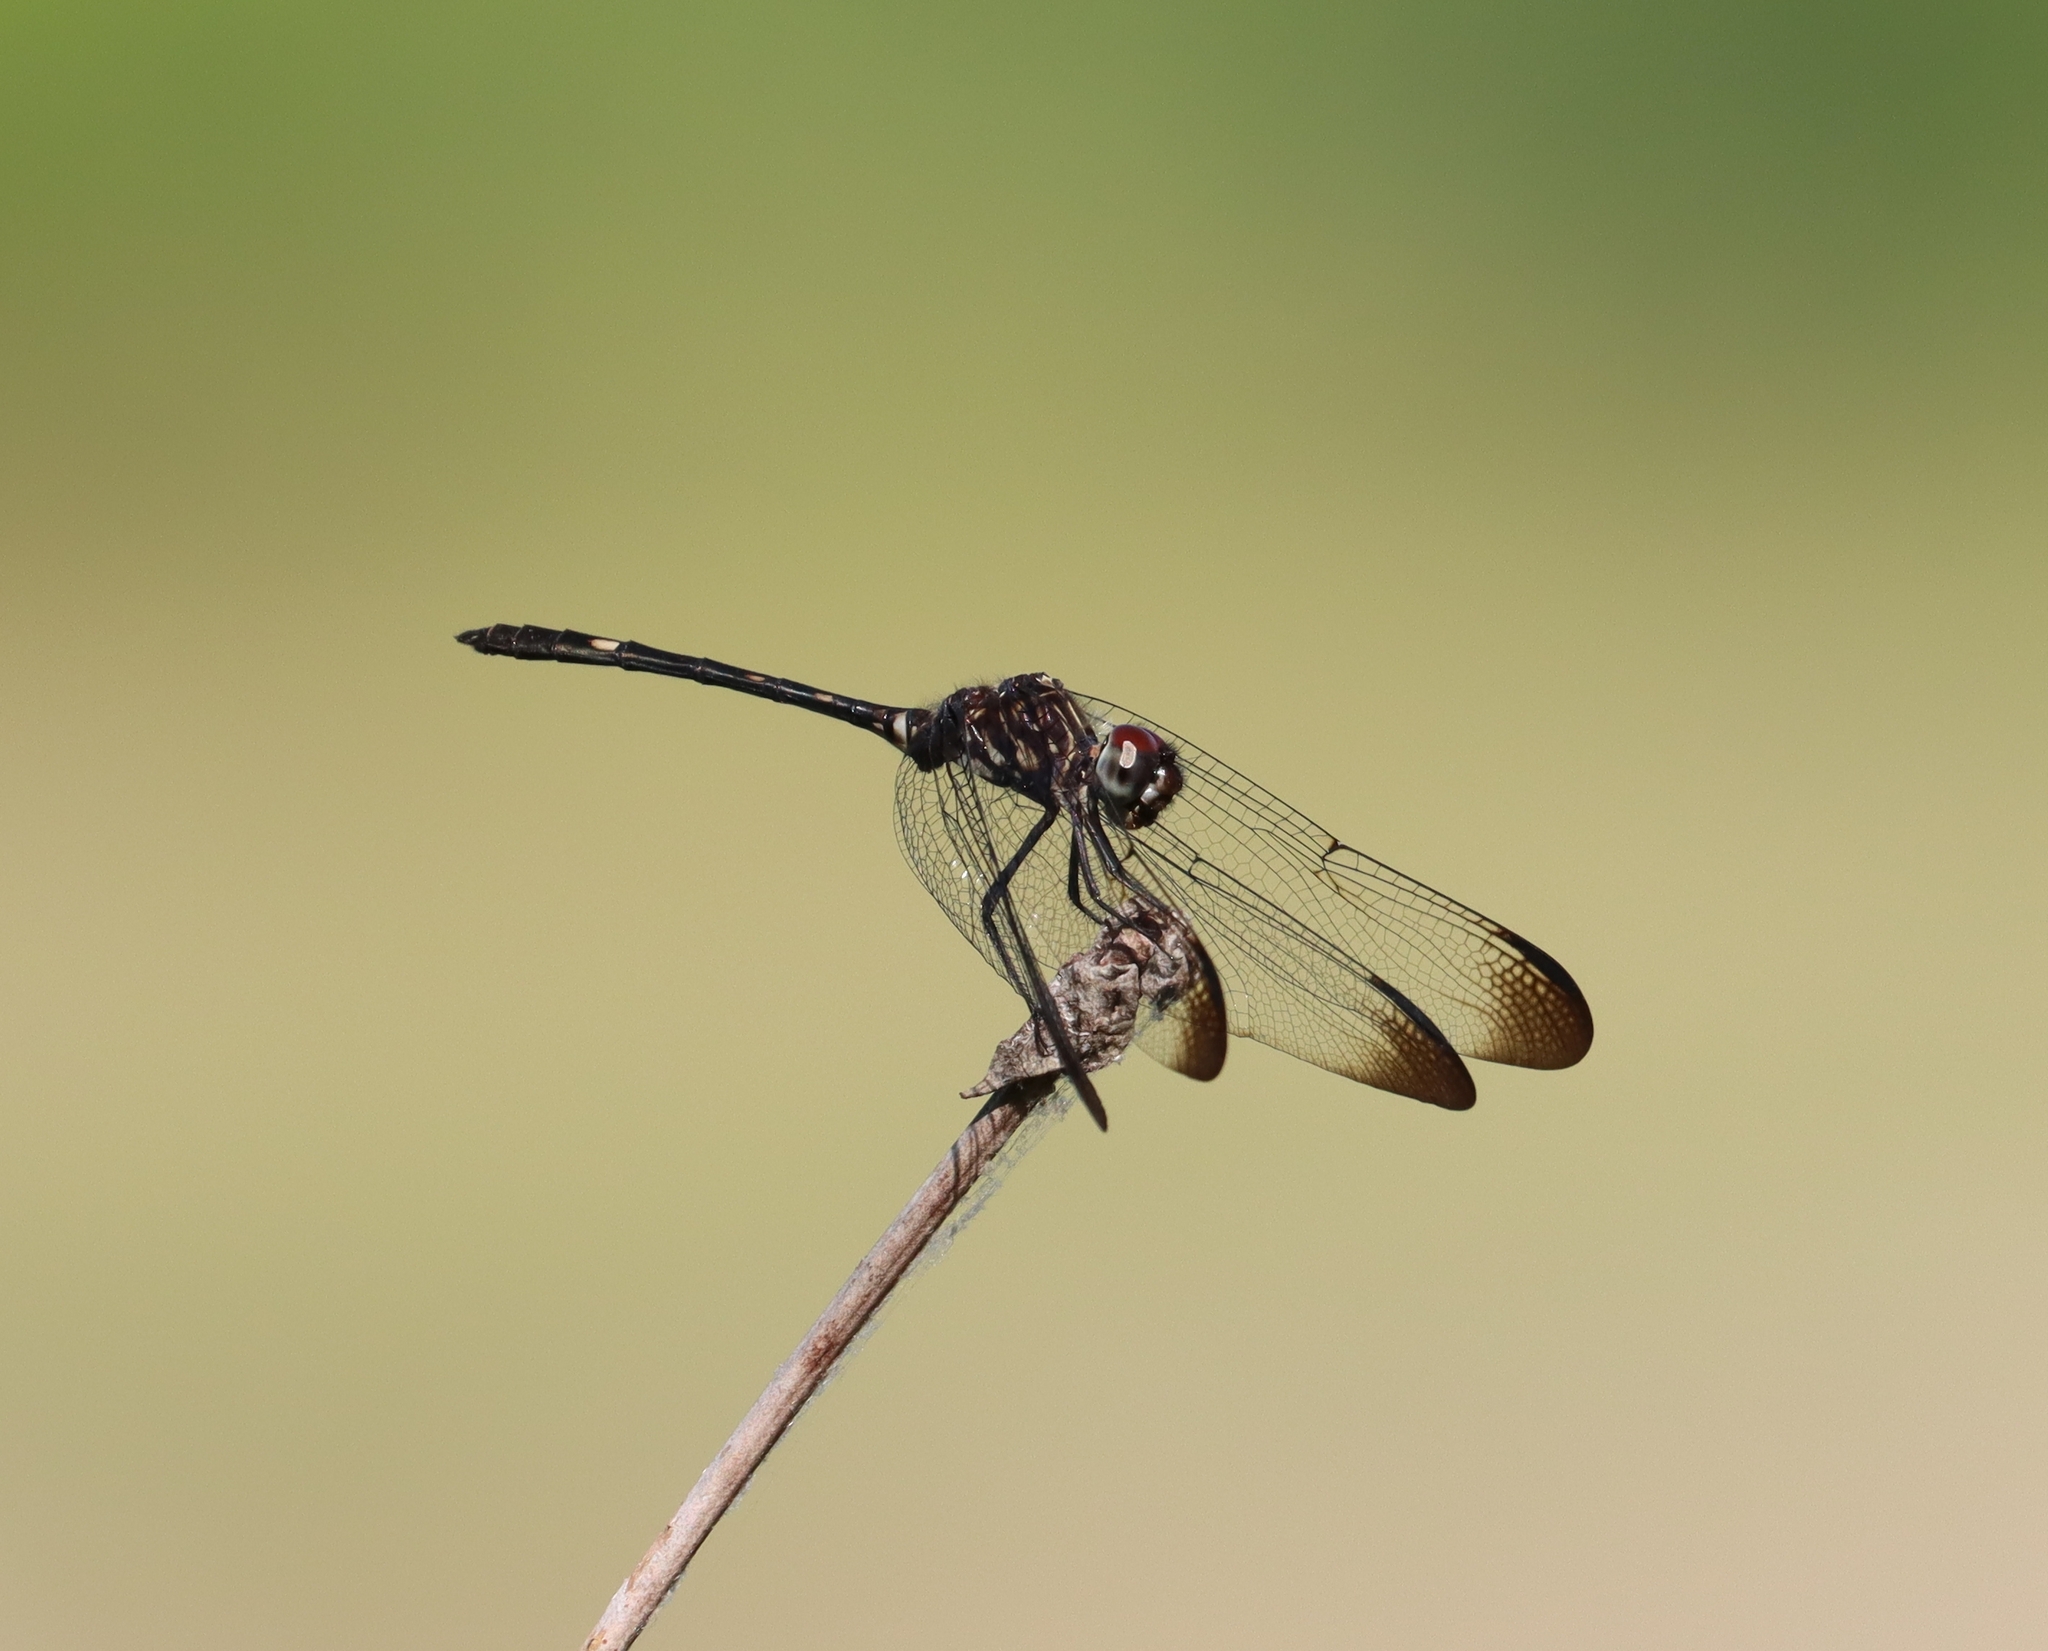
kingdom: Animalia
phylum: Arthropoda
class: Insecta
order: Odonata
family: Libellulidae
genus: Dythemis
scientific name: Dythemis velox
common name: Swift setwing
